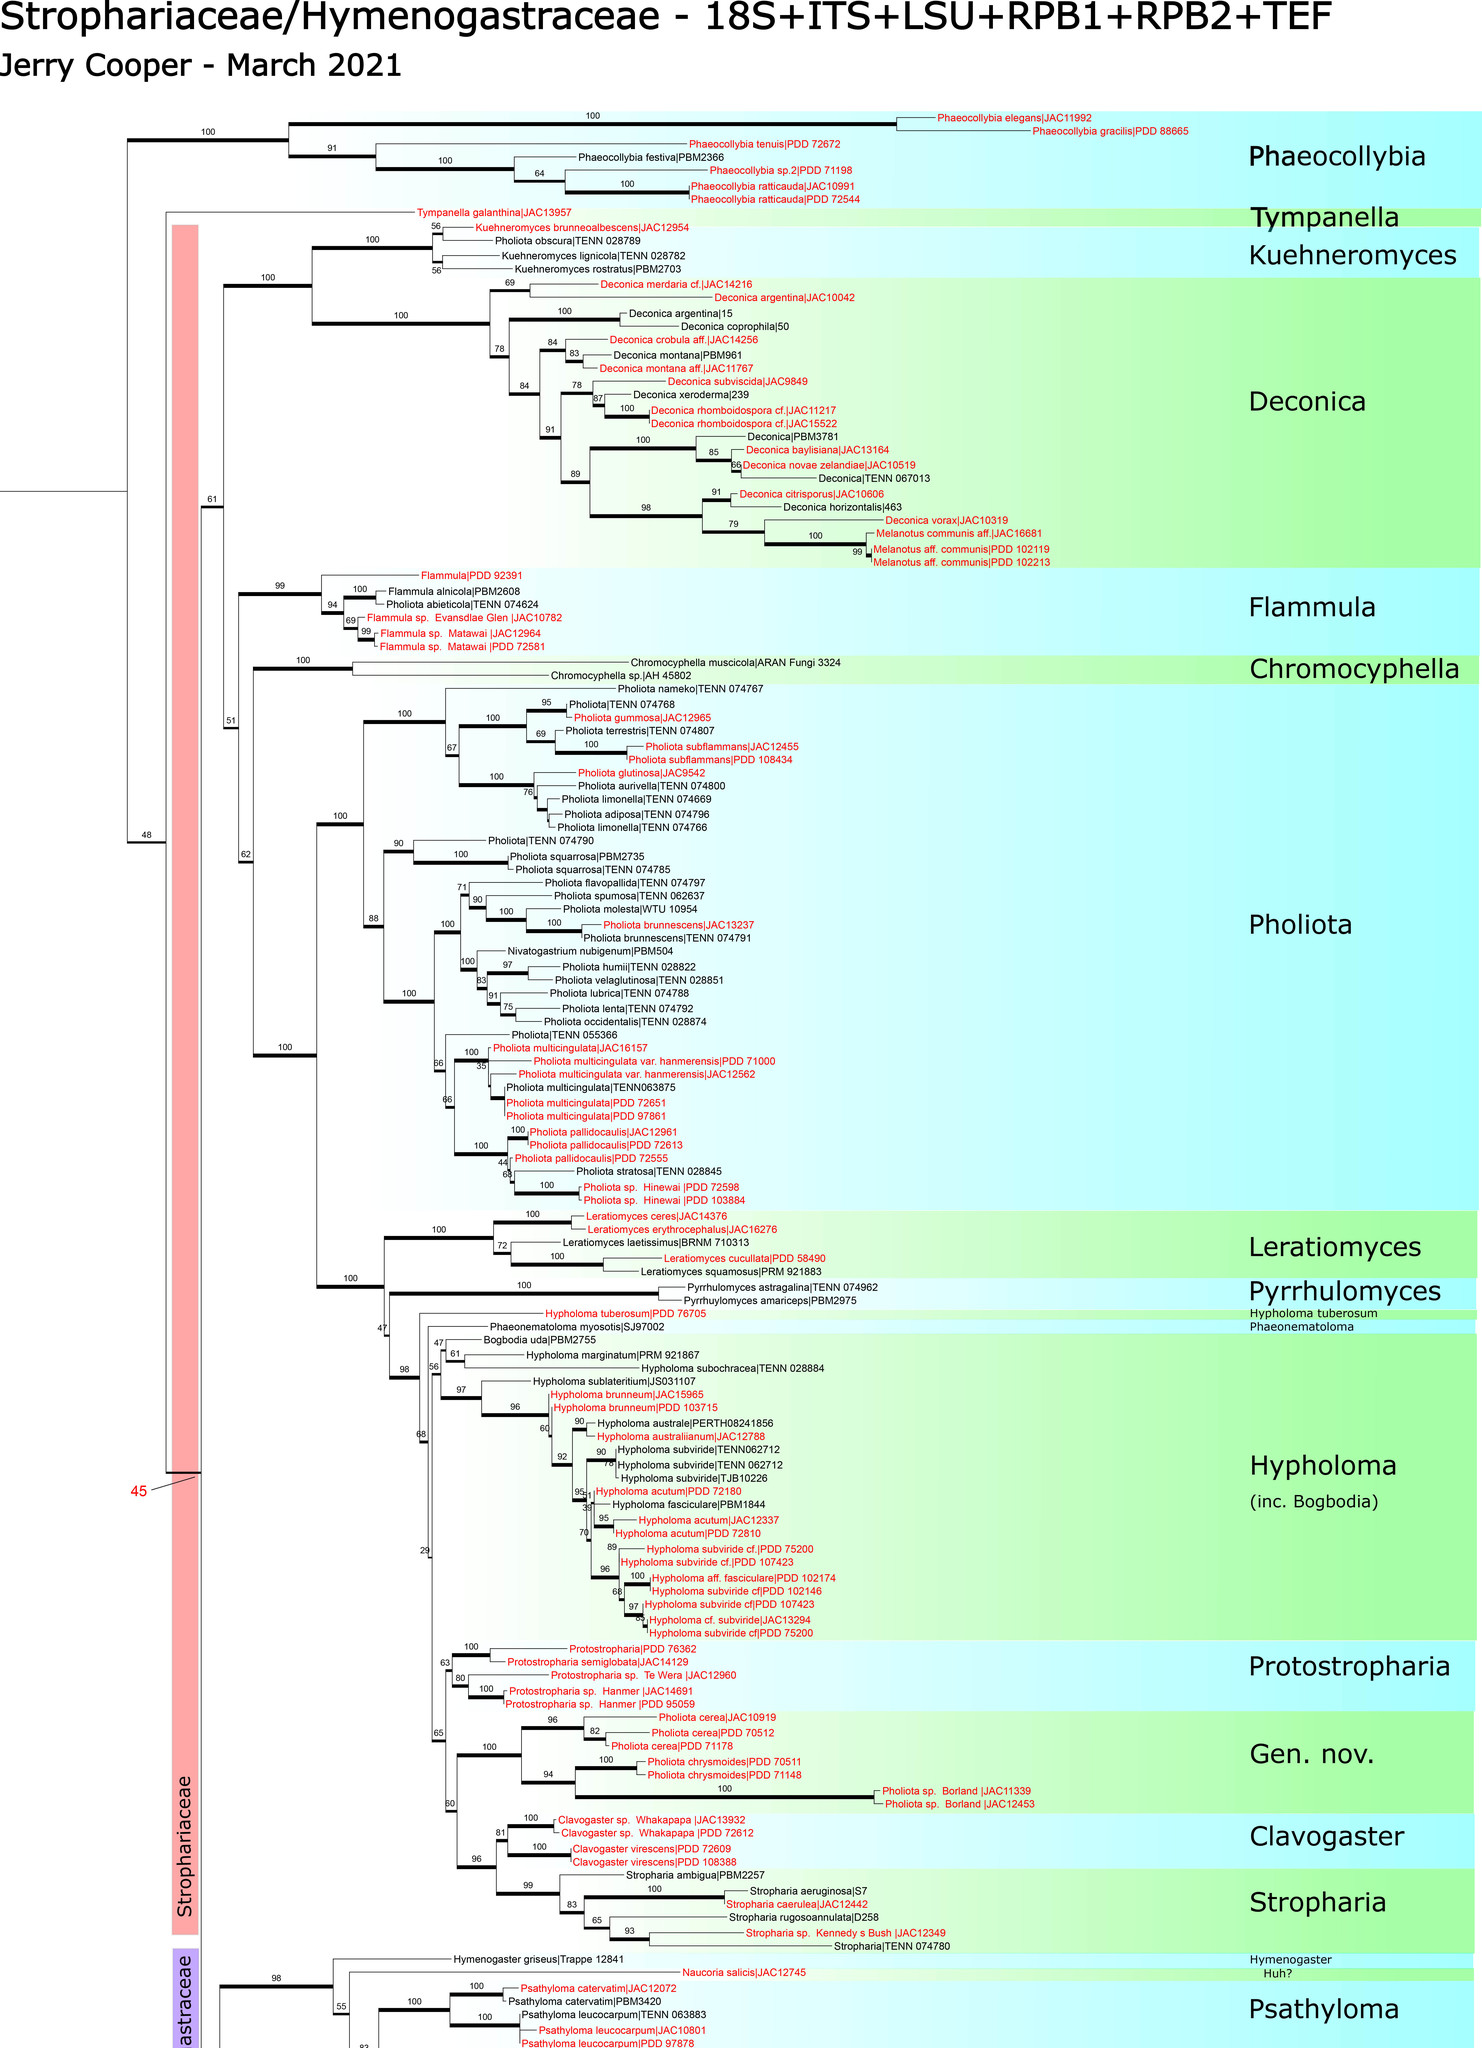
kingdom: Fungi
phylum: Basidiomycota
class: Agaricomycetes
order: Agaricales
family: Hymenogastraceae
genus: Galerina
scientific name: Galerina atkinsoniana
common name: Hairy bell
